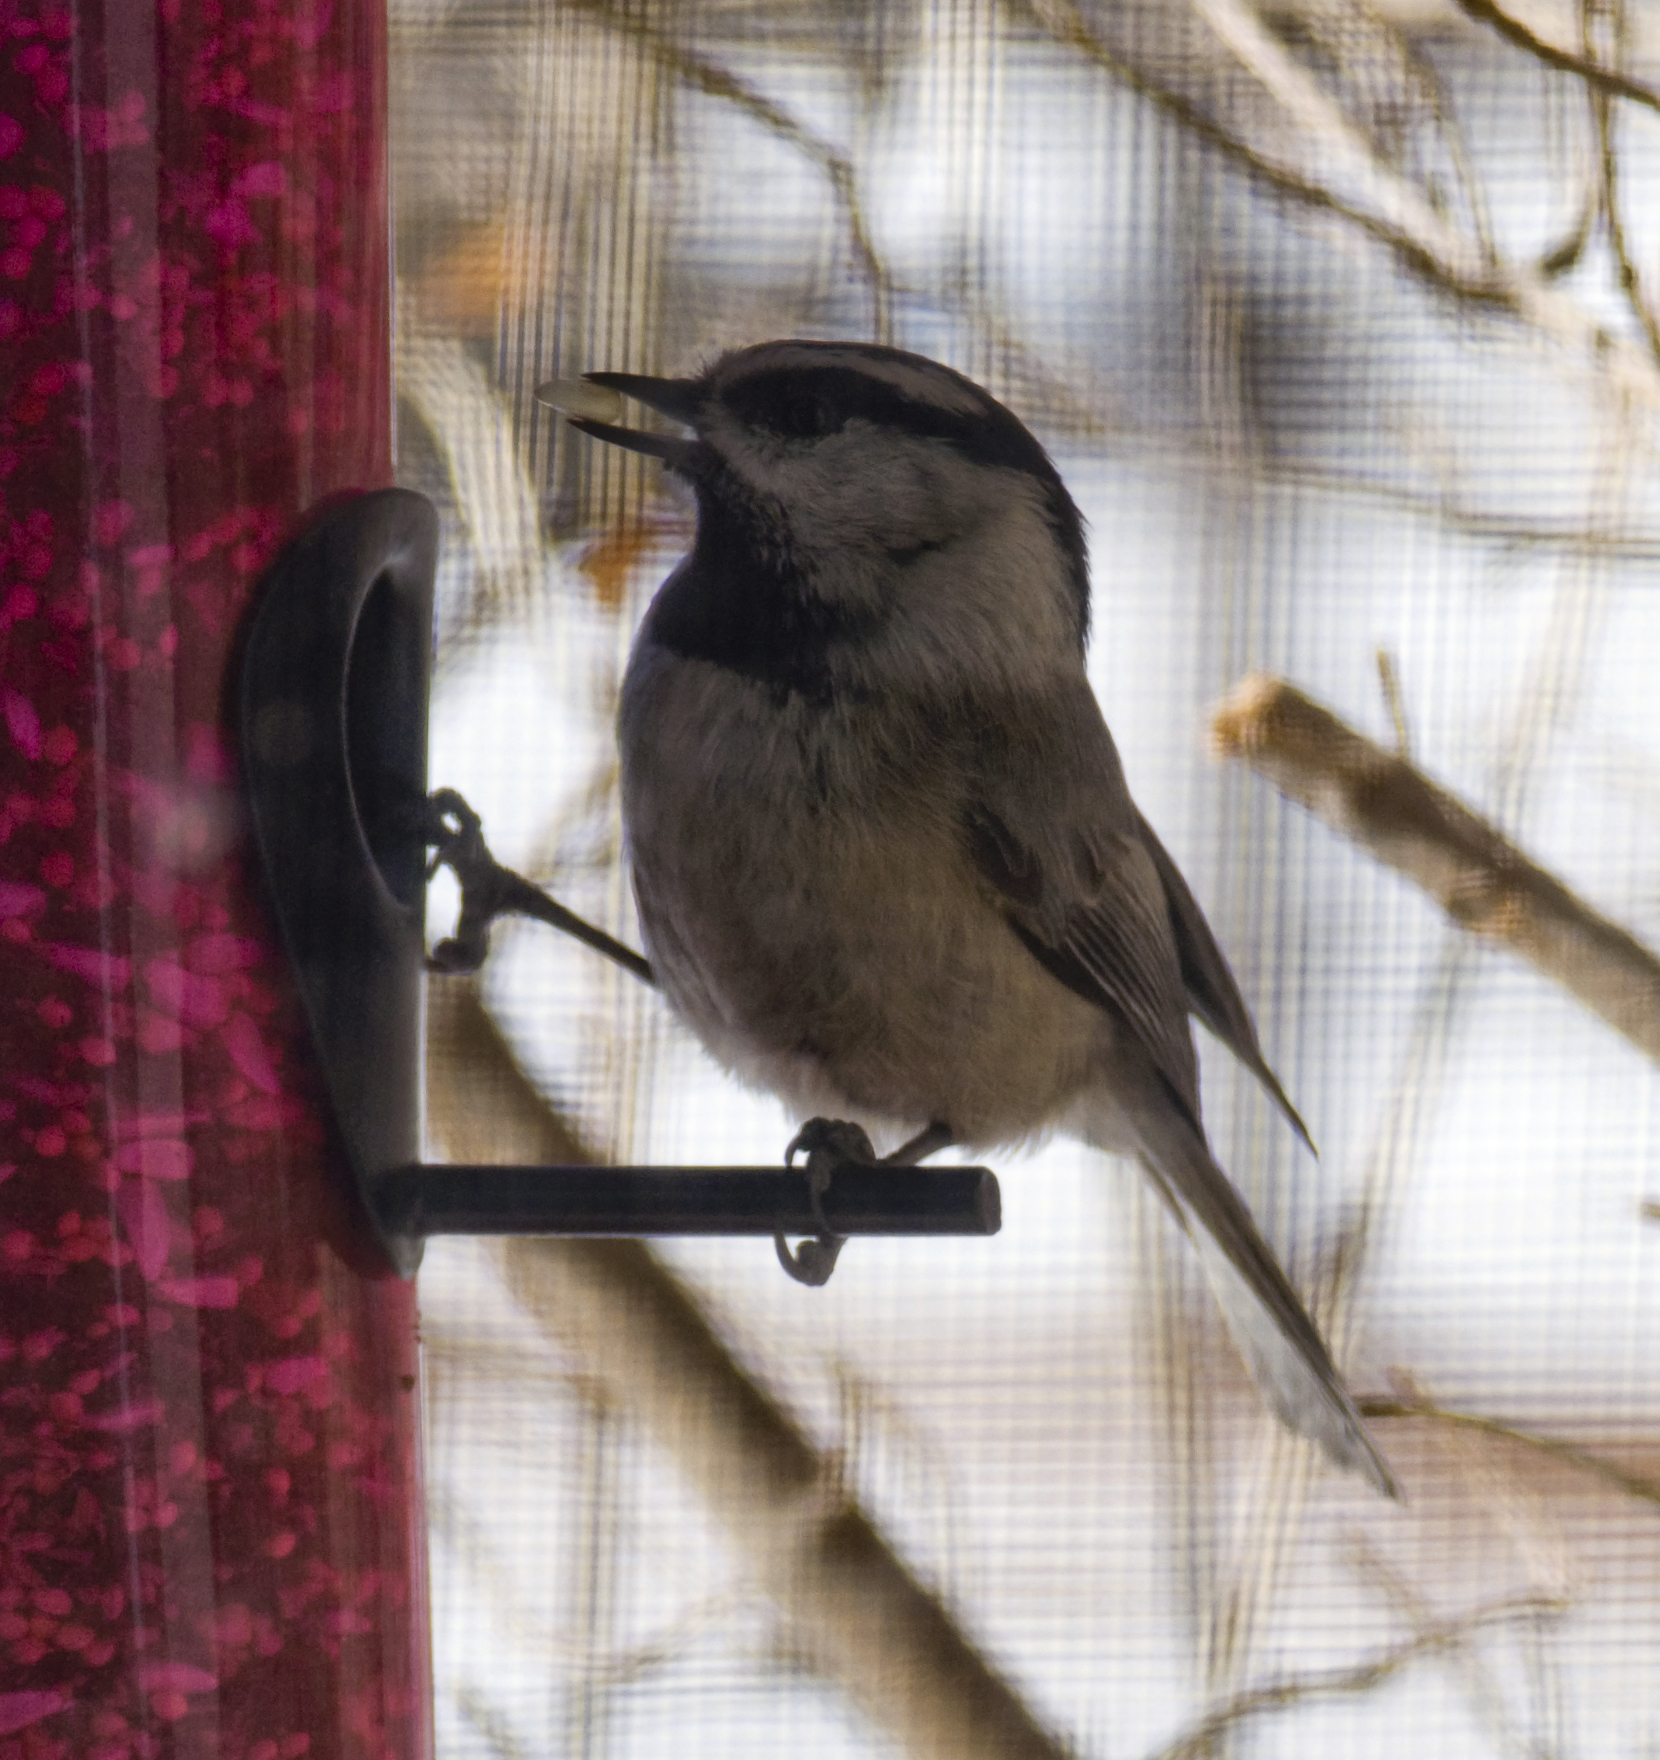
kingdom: Animalia
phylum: Chordata
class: Aves
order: Passeriformes
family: Paridae
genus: Poecile
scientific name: Poecile gambeli
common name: Mountain chickadee
